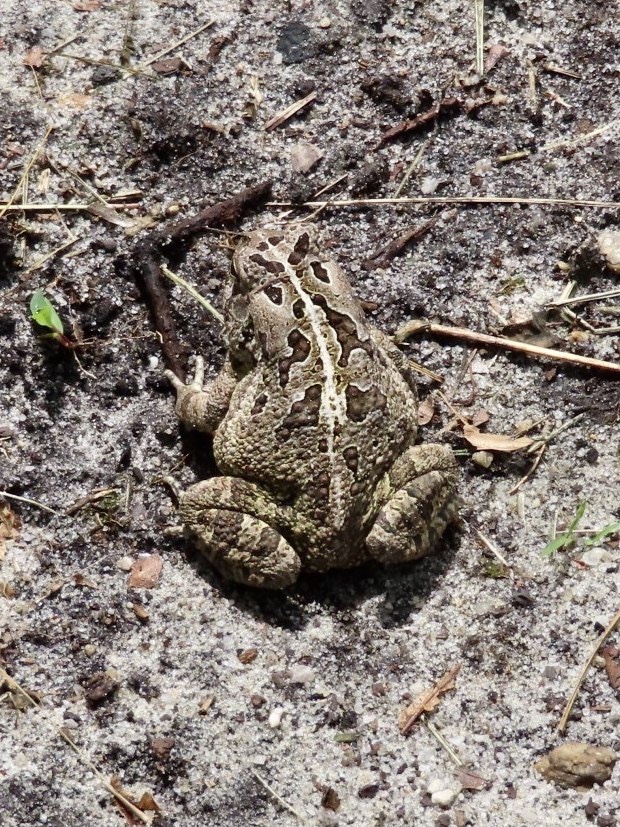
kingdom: Animalia
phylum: Chordata
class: Amphibia
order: Anura
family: Bufonidae
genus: Anaxyrus
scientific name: Anaxyrus fowleri
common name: Fowler's toad
